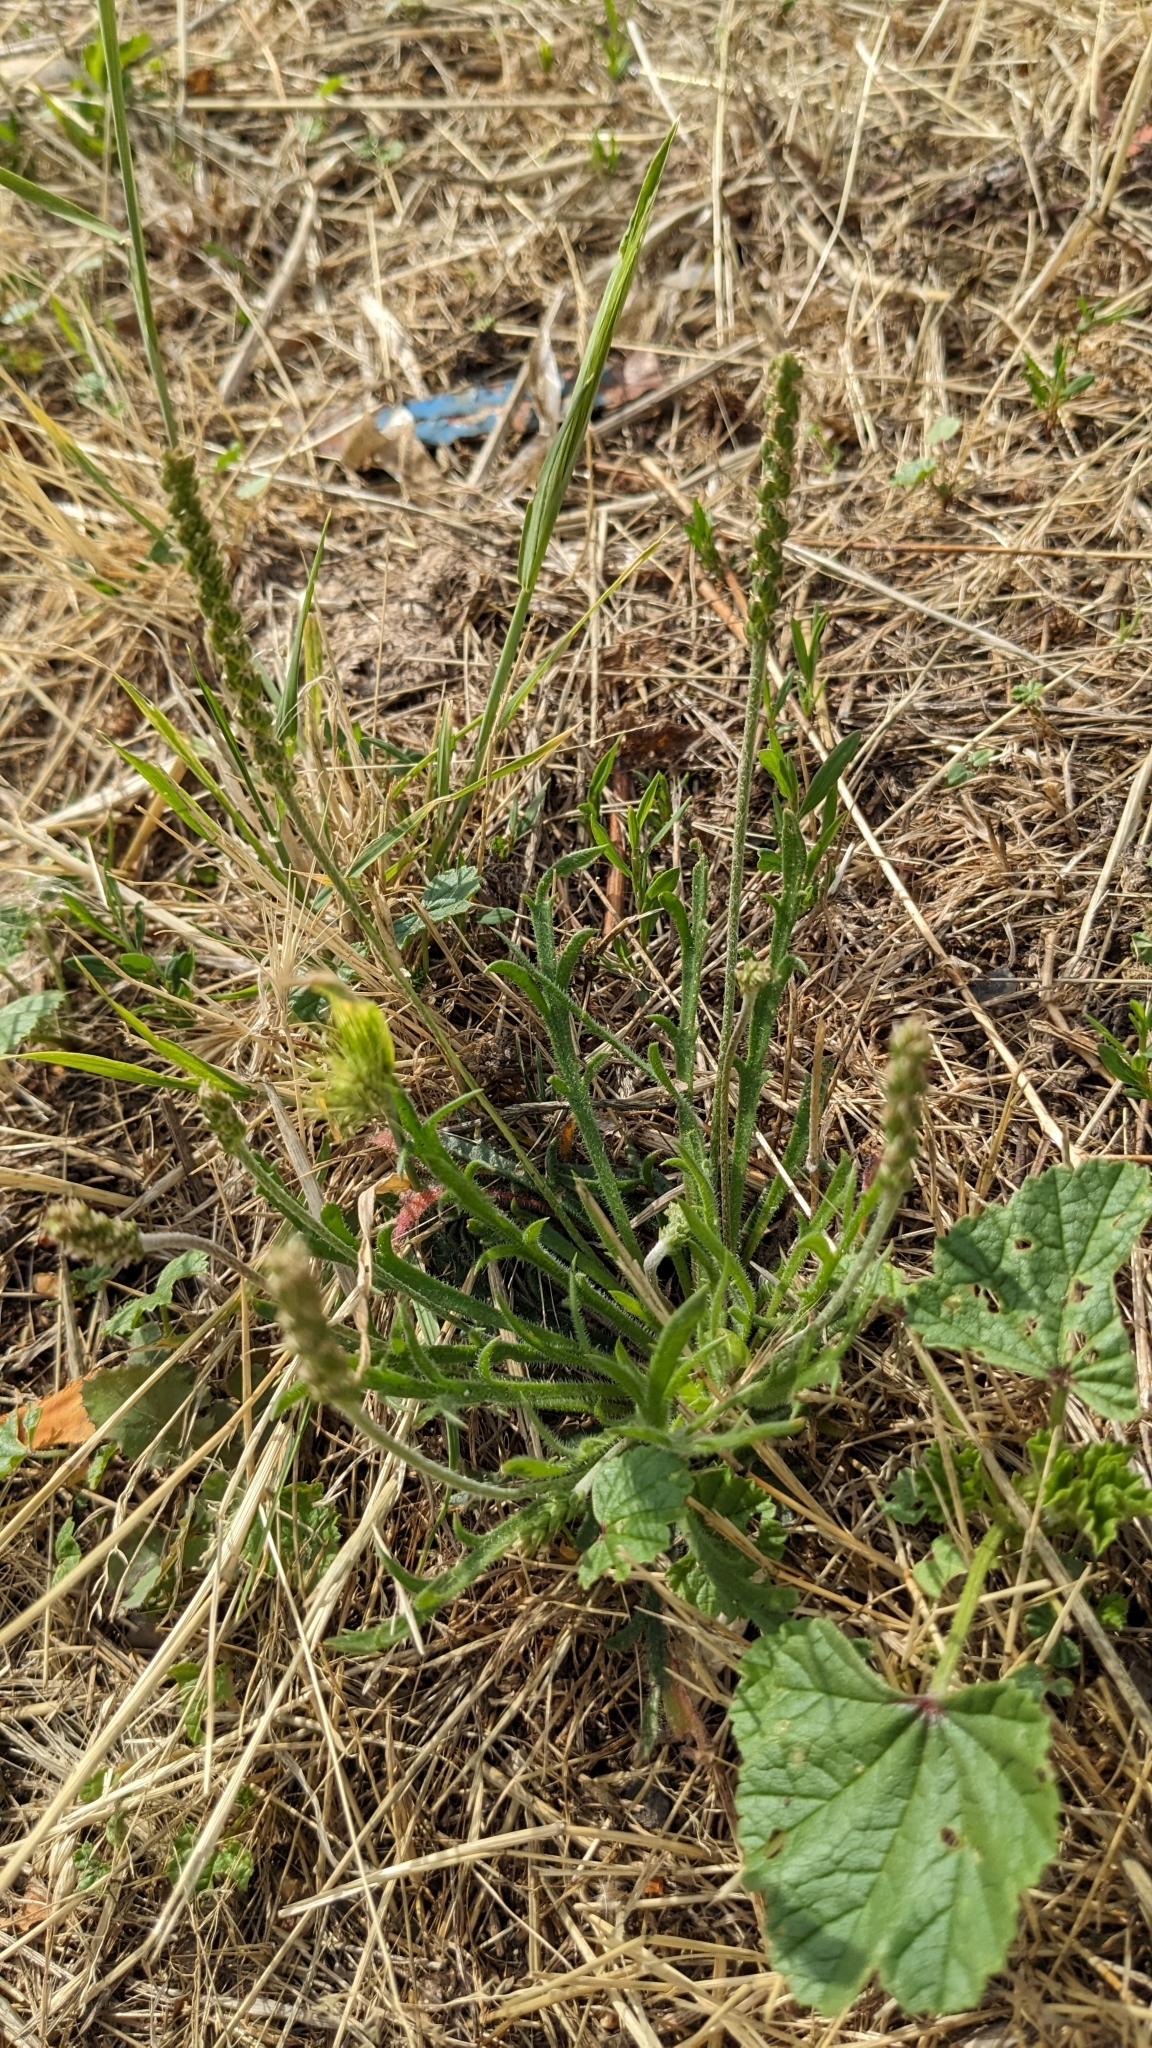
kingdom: Plantae
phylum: Tracheophyta
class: Magnoliopsida
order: Lamiales
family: Plantaginaceae
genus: Plantago
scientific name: Plantago coronopus
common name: Buck's-horn plantain
